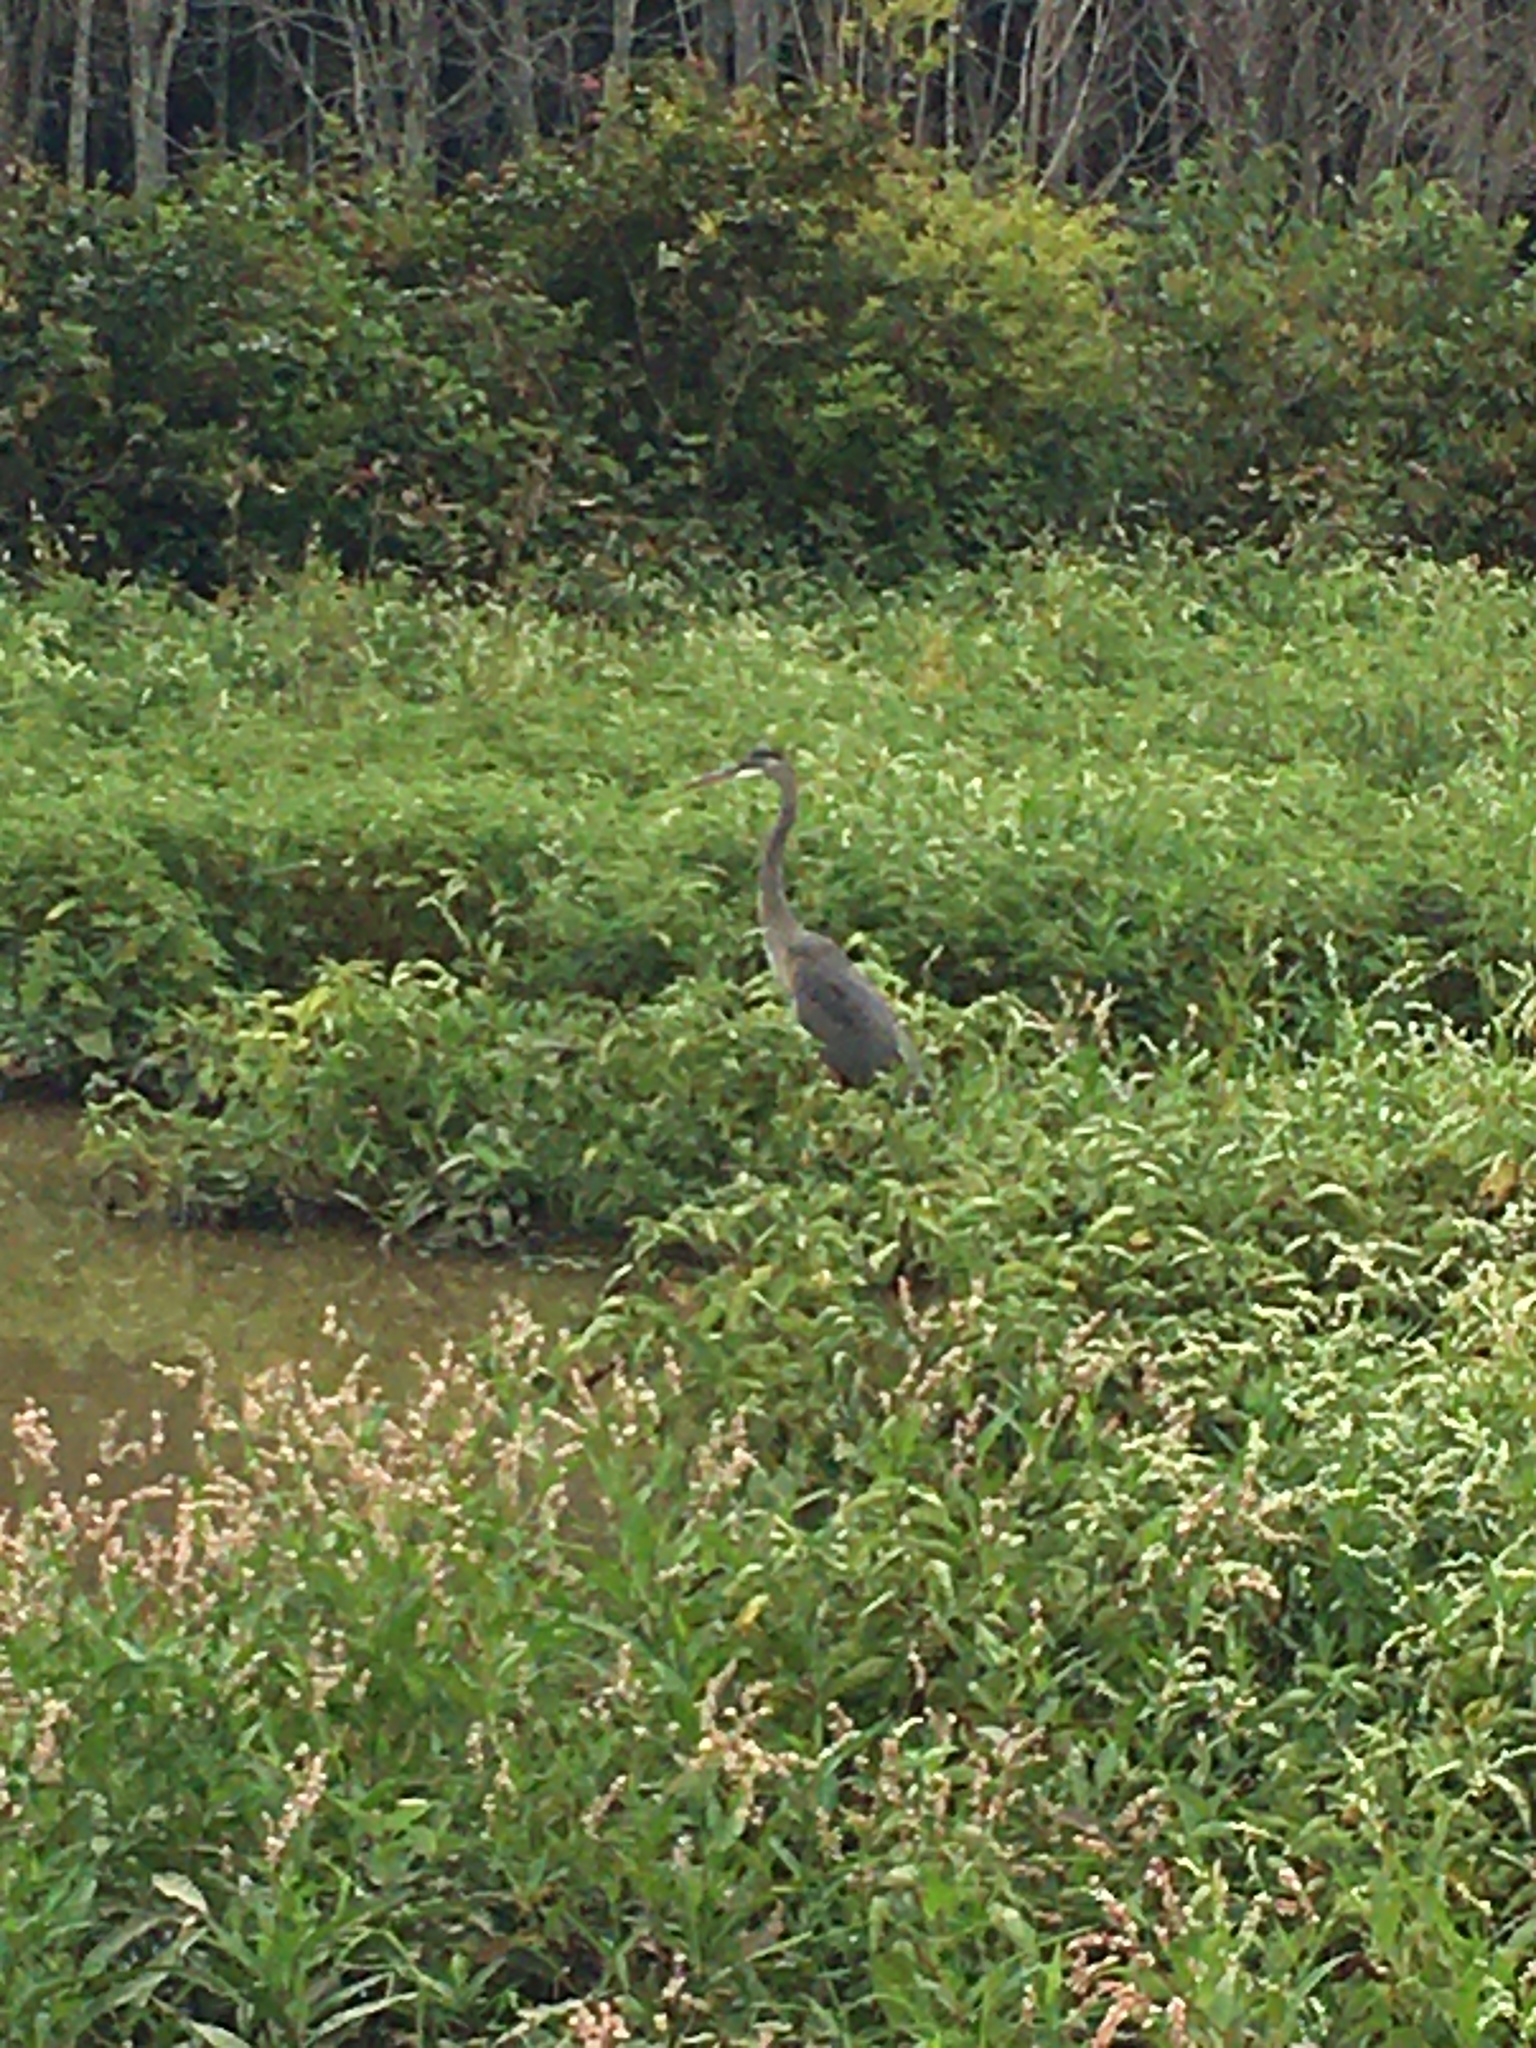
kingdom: Animalia
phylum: Chordata
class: Aves
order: Pelecaniformes
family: Ardeidae
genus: Ardea
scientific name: Ardea herodias
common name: Great blue heron
